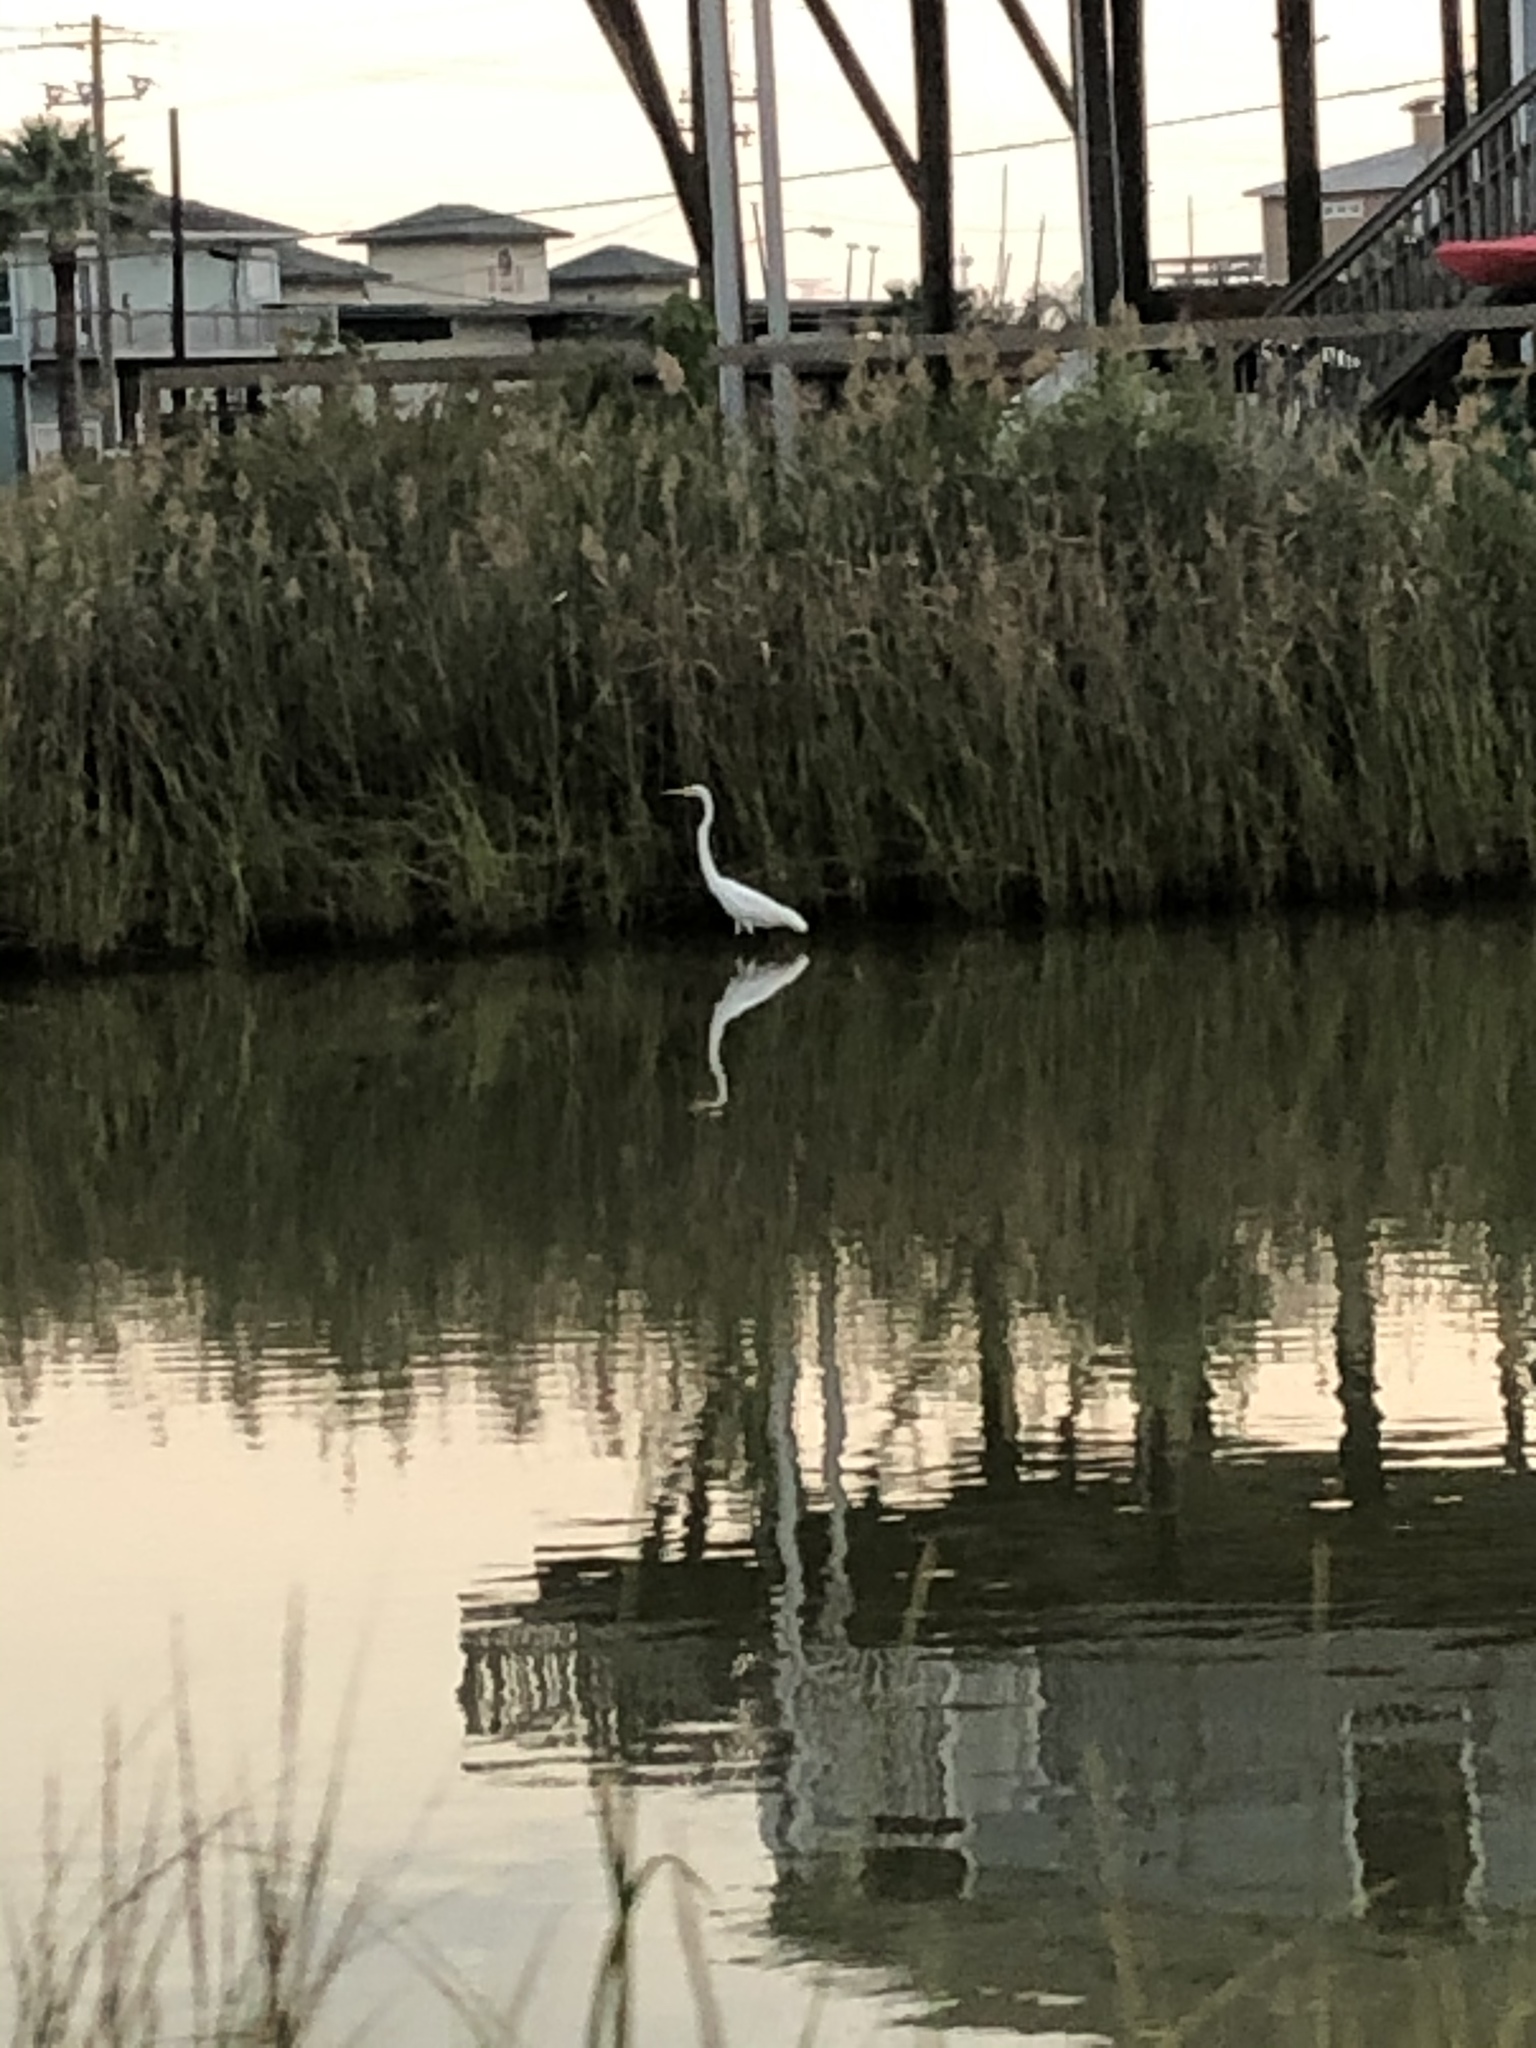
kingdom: Animalia
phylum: Chordata
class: Aves
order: Pelecaniformes
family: Ardeidae
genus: Ardea
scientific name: Ardea alba
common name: Great egret
